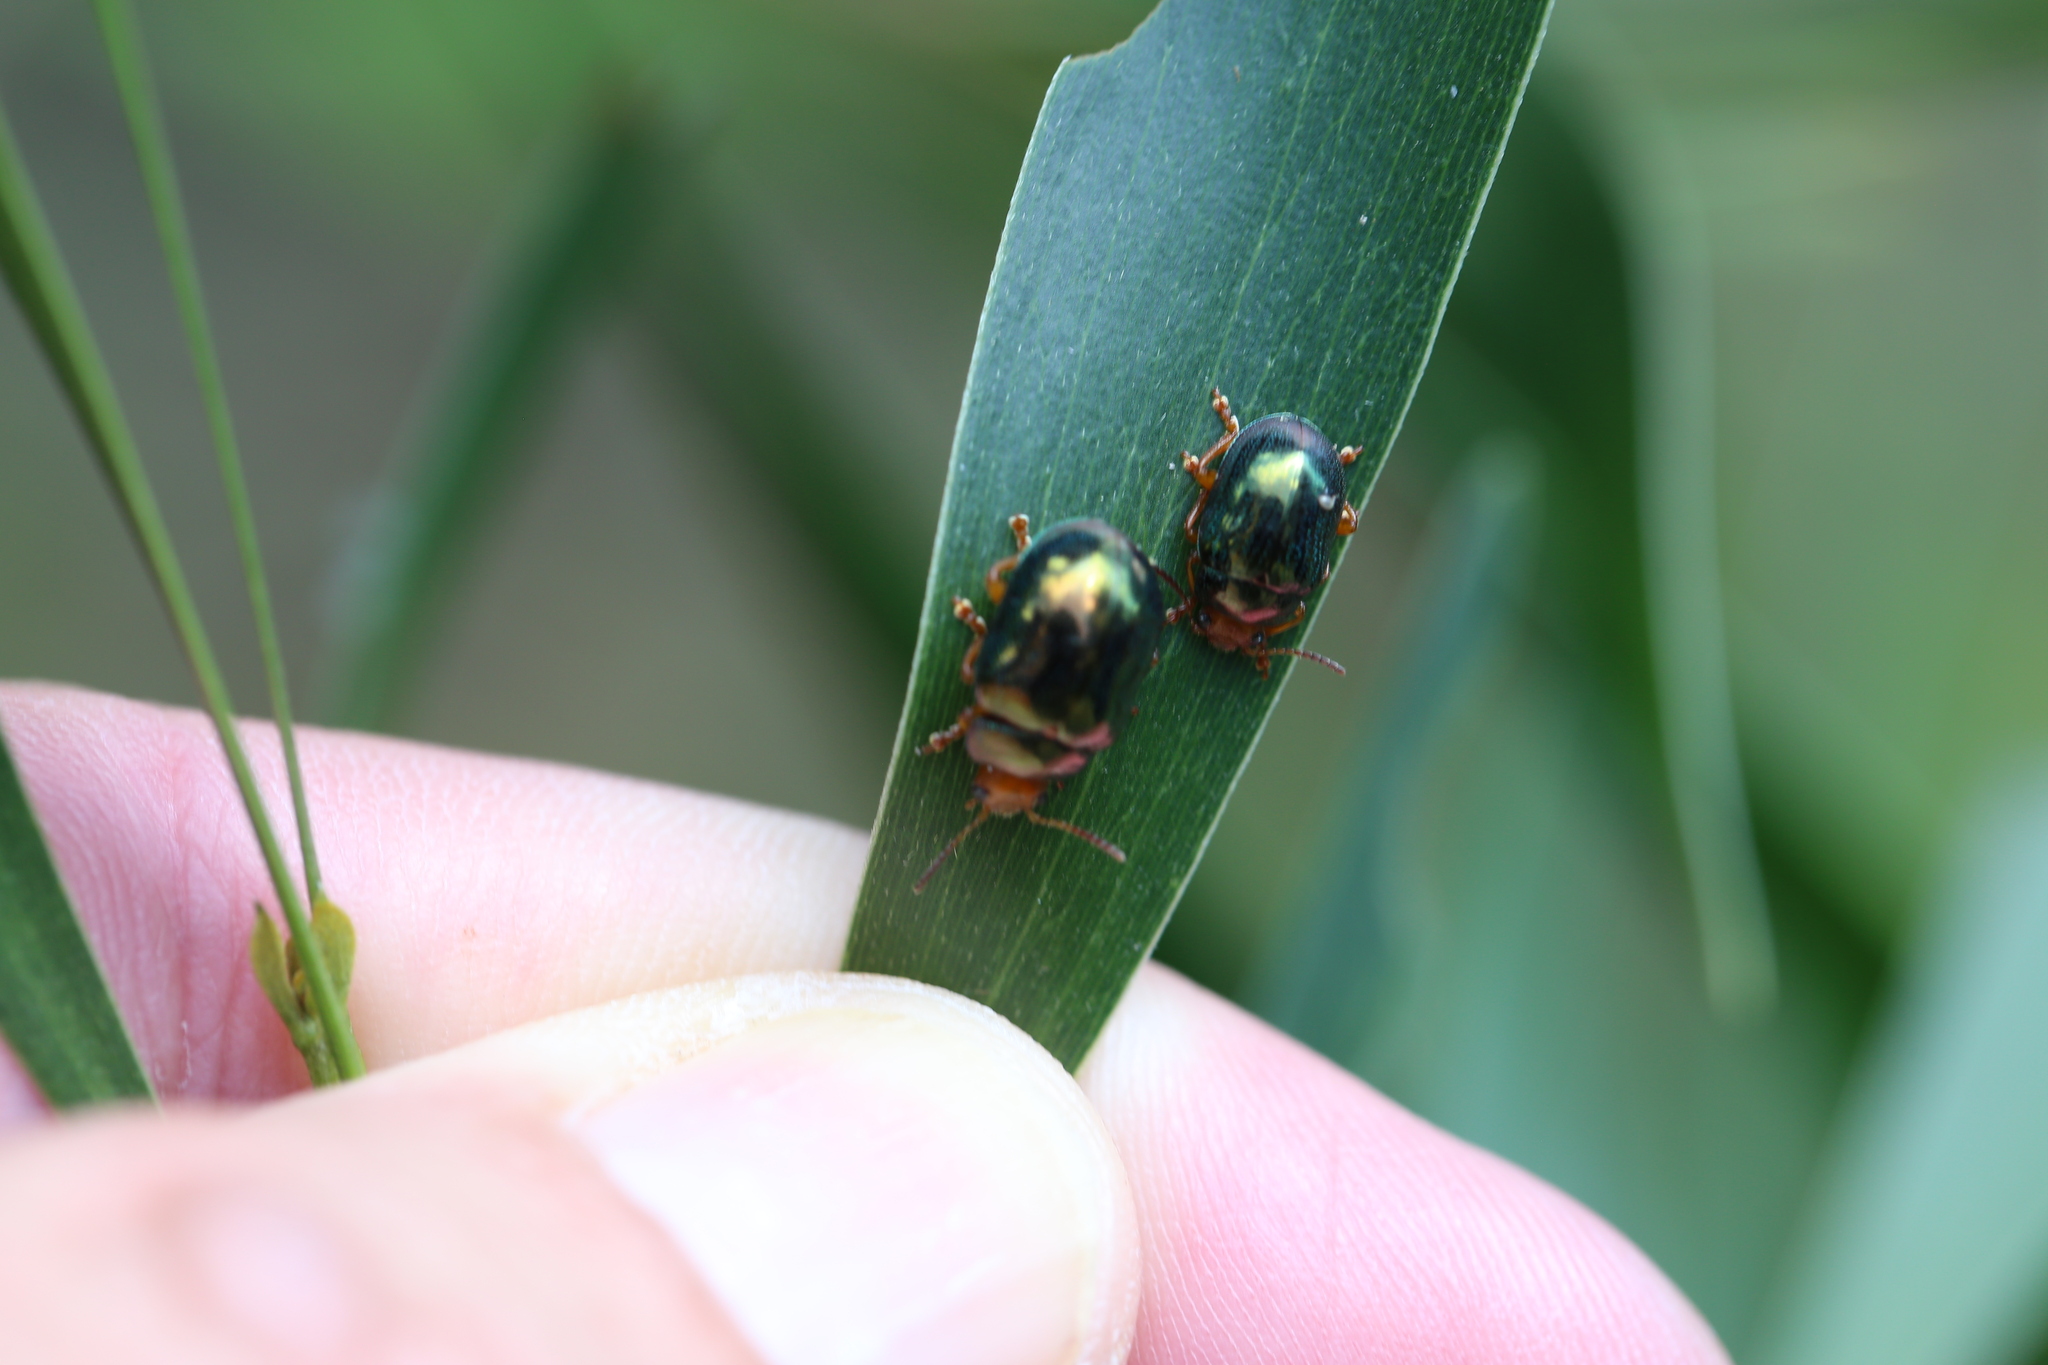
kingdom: Animalia
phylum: Arthropoda
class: Insecta
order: Coleoptera
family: Chrysomelidae
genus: Calomela
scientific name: Calomela
